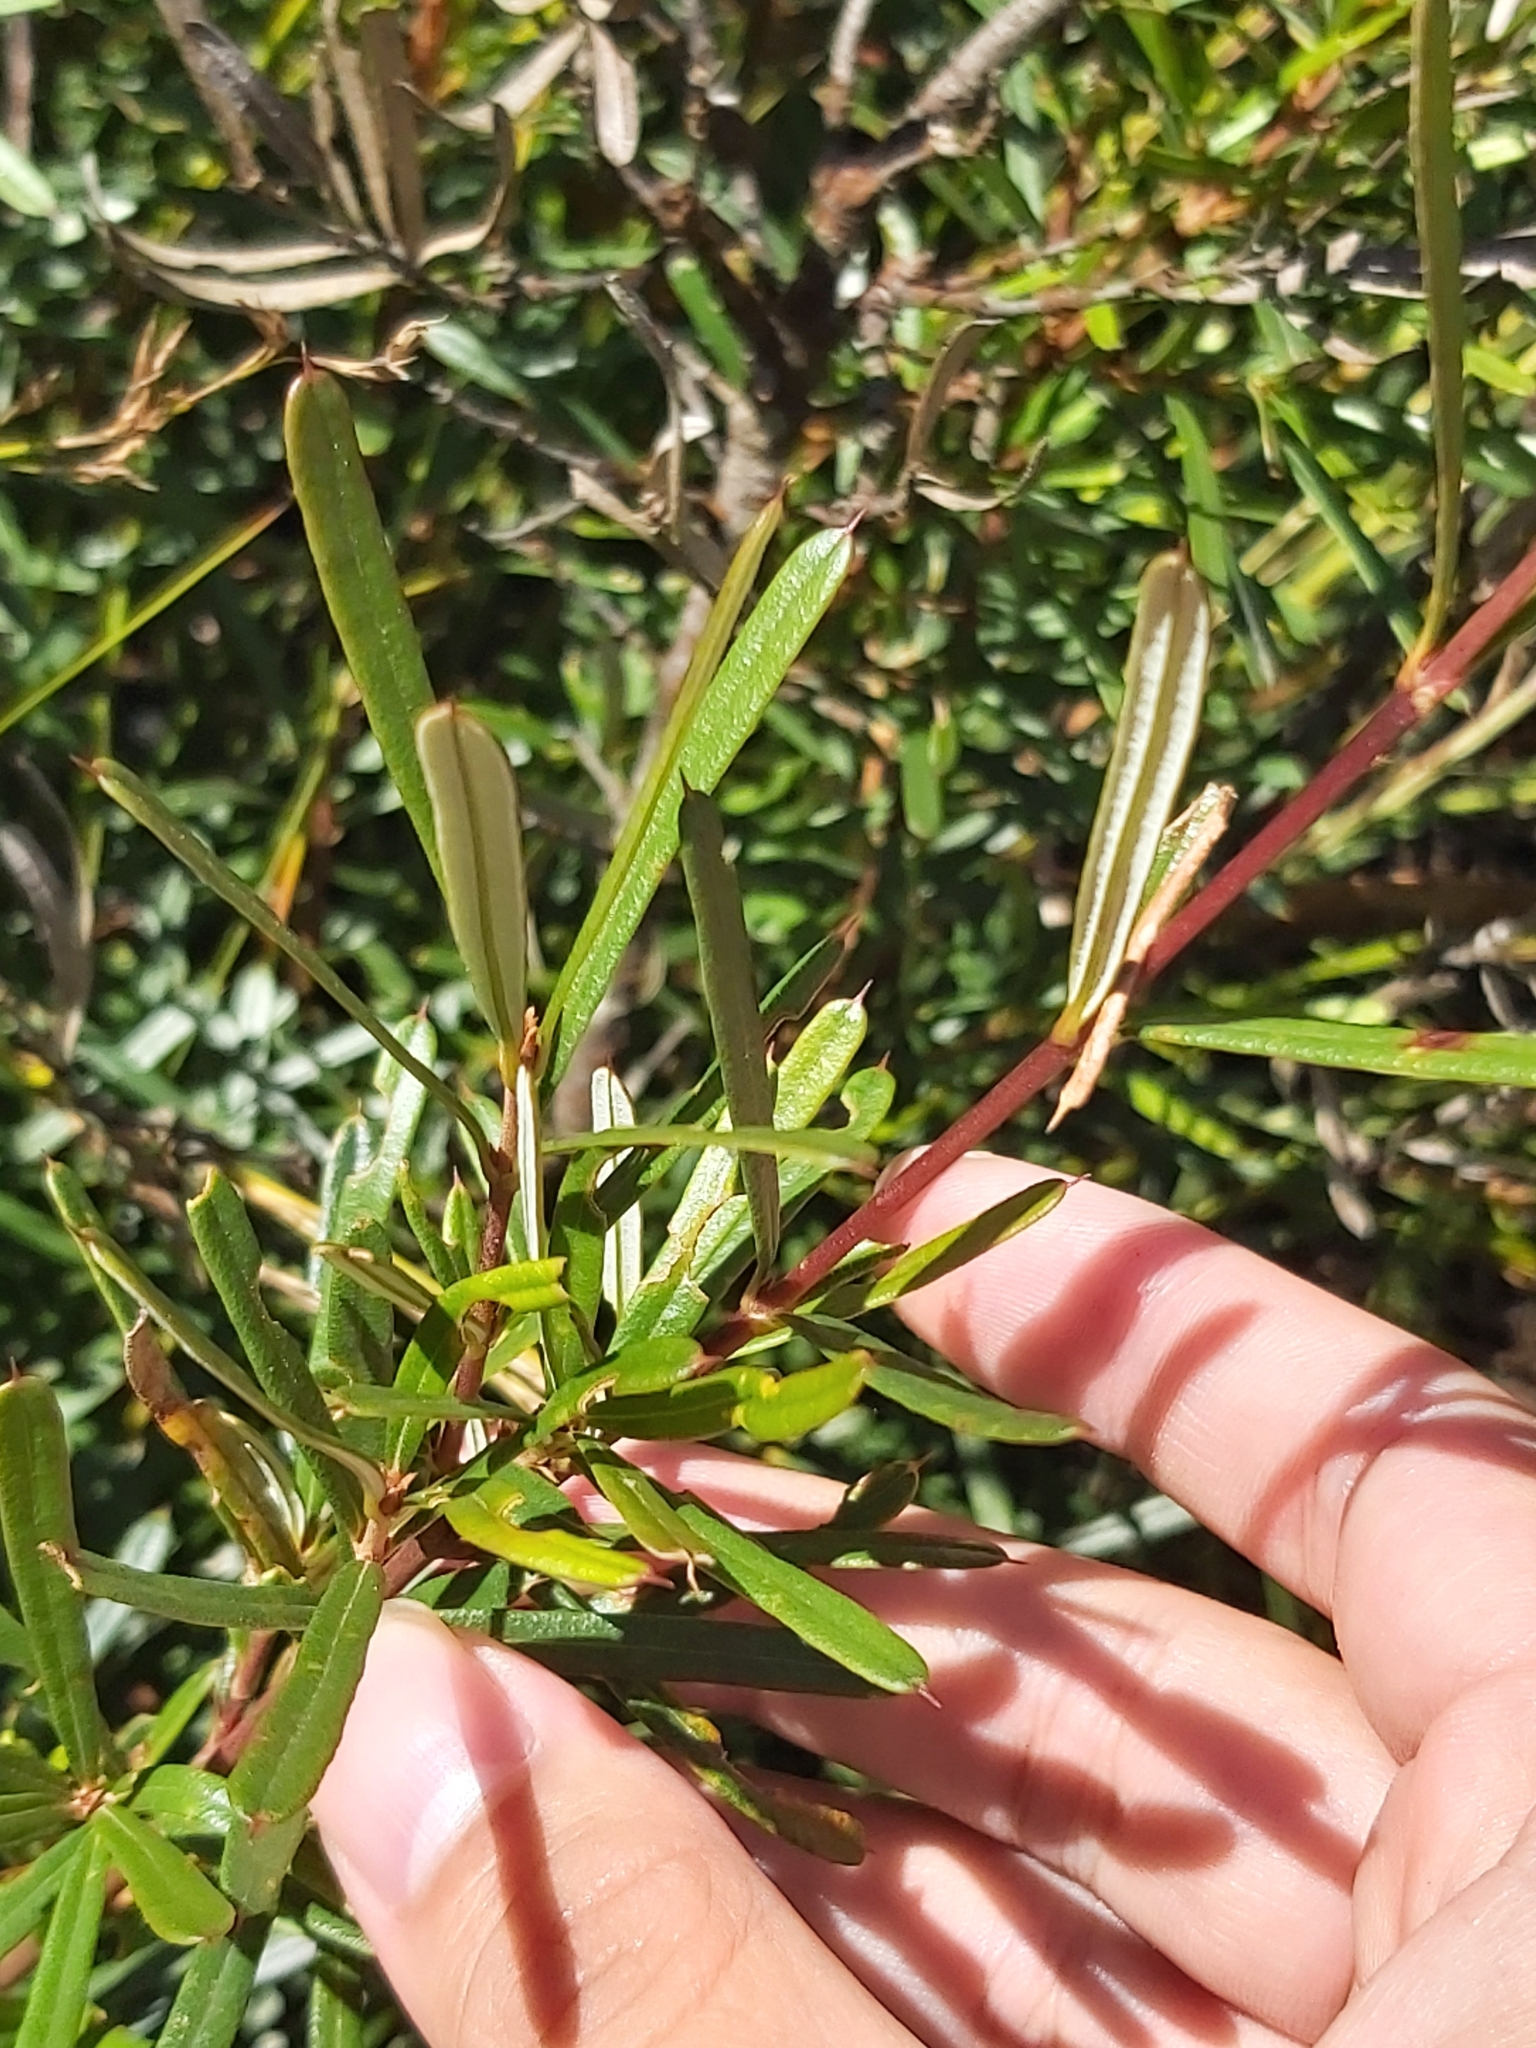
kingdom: Plantae
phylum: Tracheophyta
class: Magnoliopsida
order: Proteales
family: Proteaceae
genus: Lambertia
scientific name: Lambertia formosa
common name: Mountain-devil
